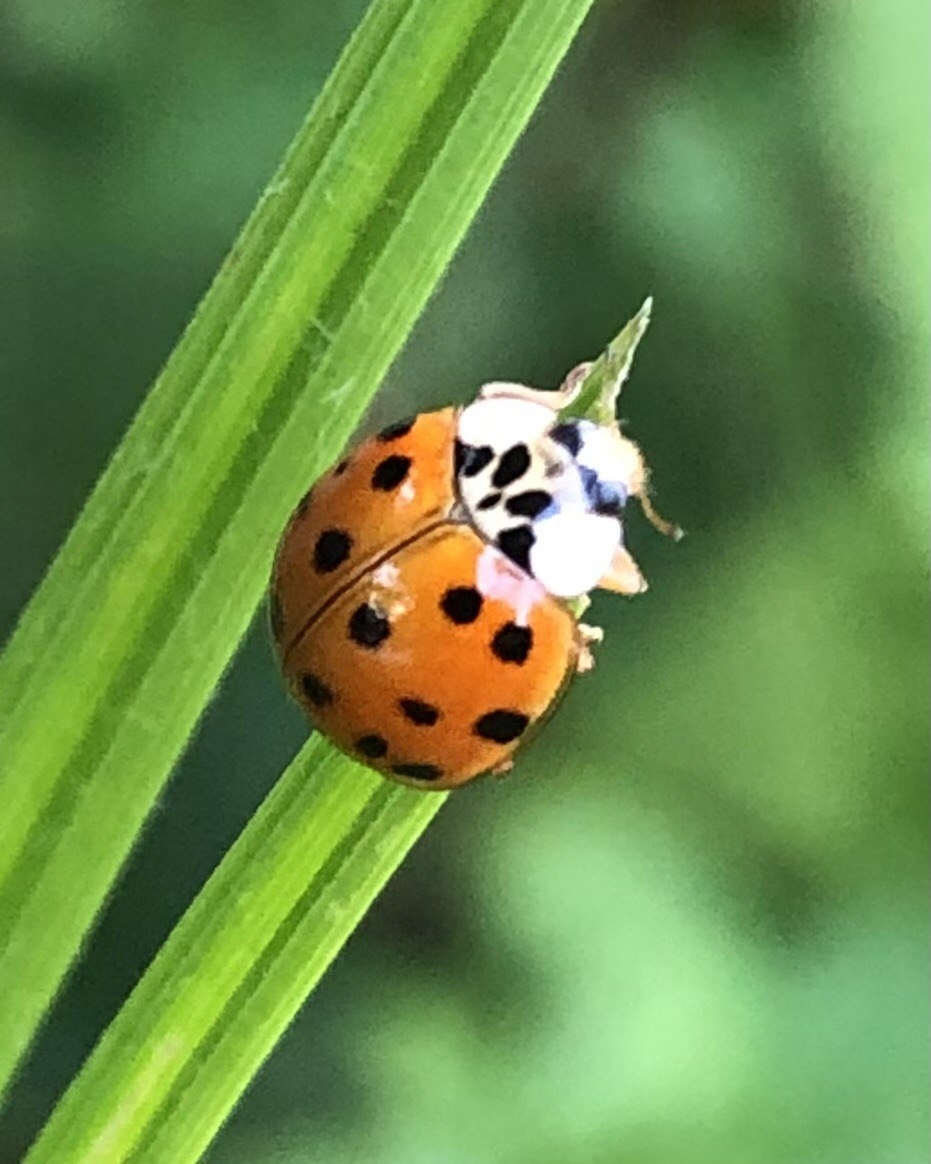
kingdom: Animalia
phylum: Arthropoda
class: Insecta
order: Coleoptera
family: Coccinellidae
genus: Harmonia
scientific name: Harmonia axyridis
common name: Harlequin ladybird
